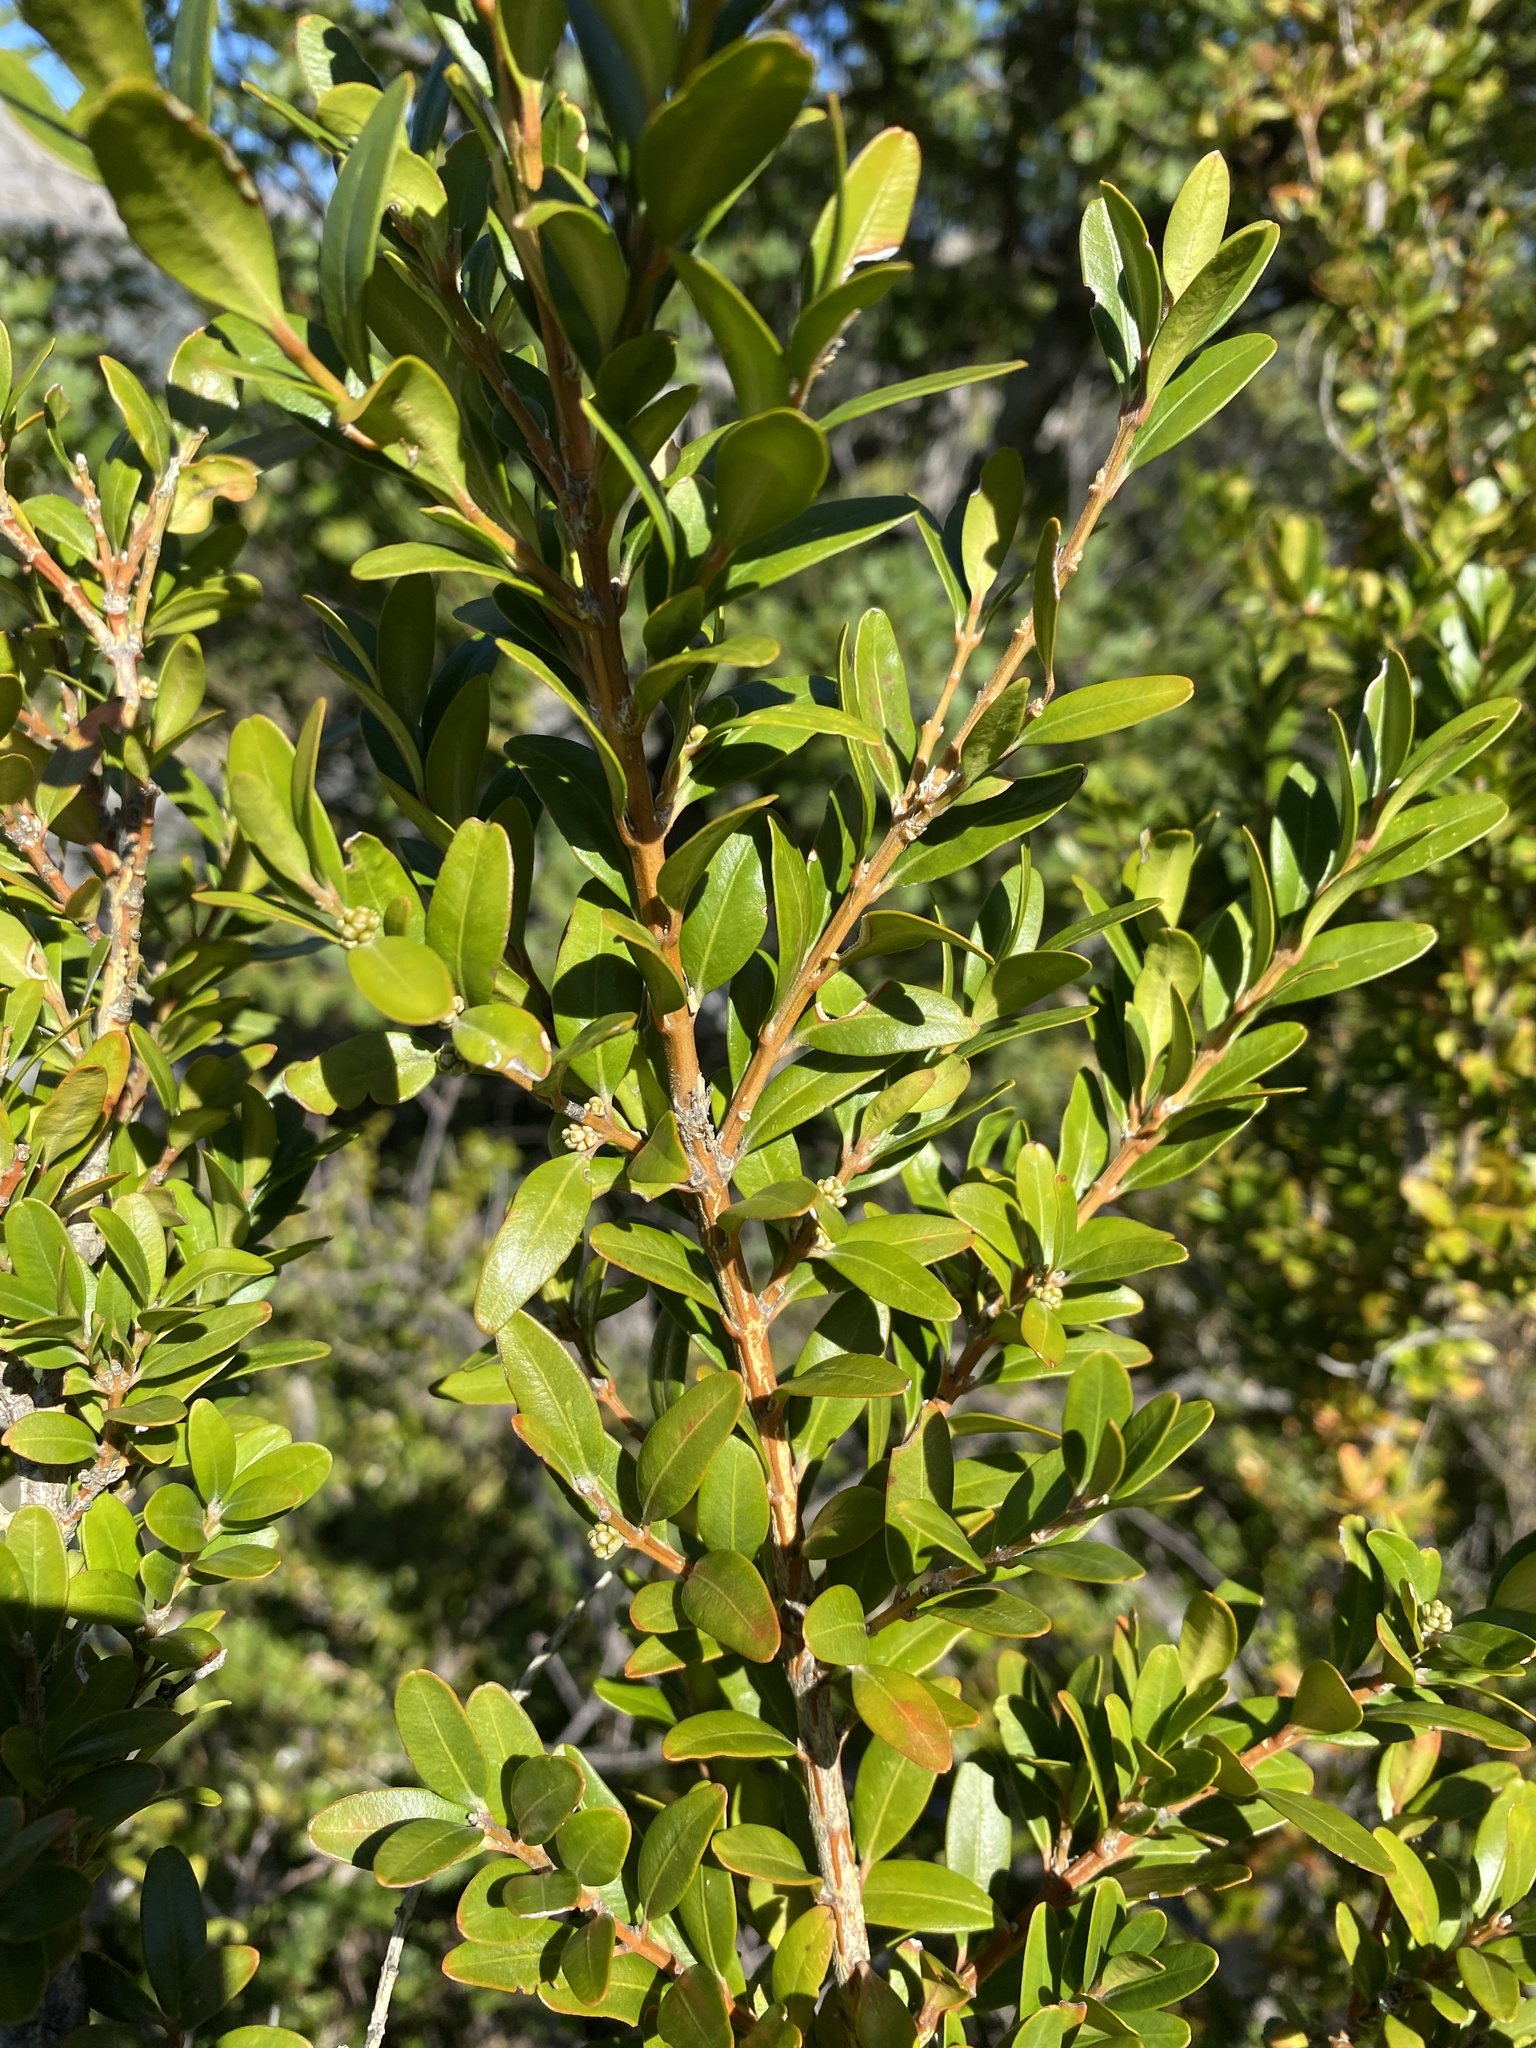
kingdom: Plantae
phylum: Tracheophyta
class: Magnoliopsida
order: Buxales
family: Buxaceae
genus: Buxus
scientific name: Buxus sempervirens
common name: Box
